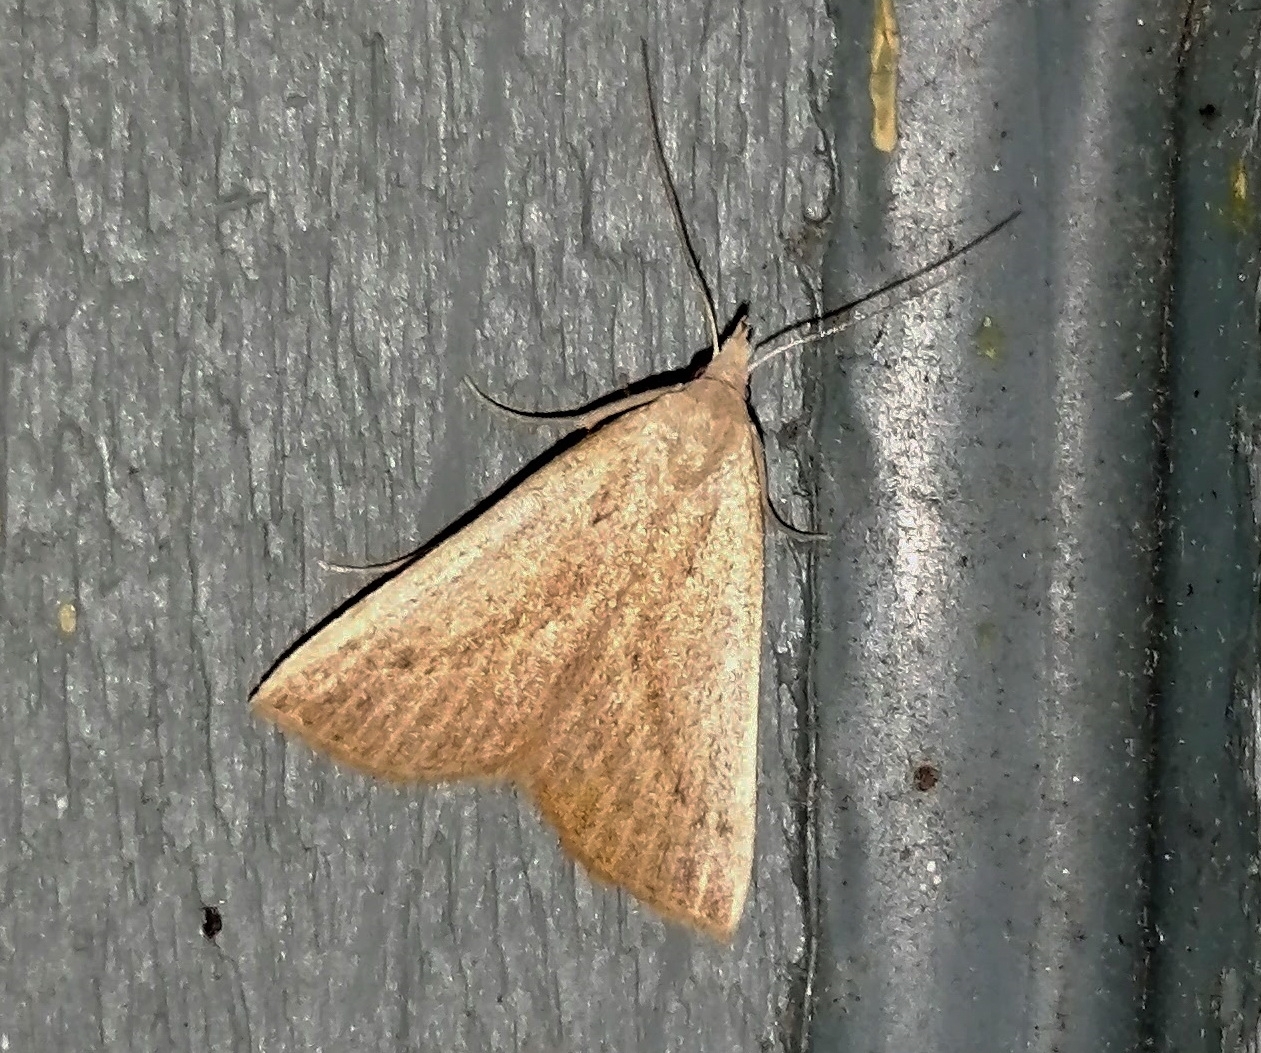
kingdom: Animalia
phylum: Arthropoda
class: Insecta
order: Lepidoptera
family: Erebidae
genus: Macrochilo
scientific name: Macrochilo louisiana
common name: Louisiana macrochilo
